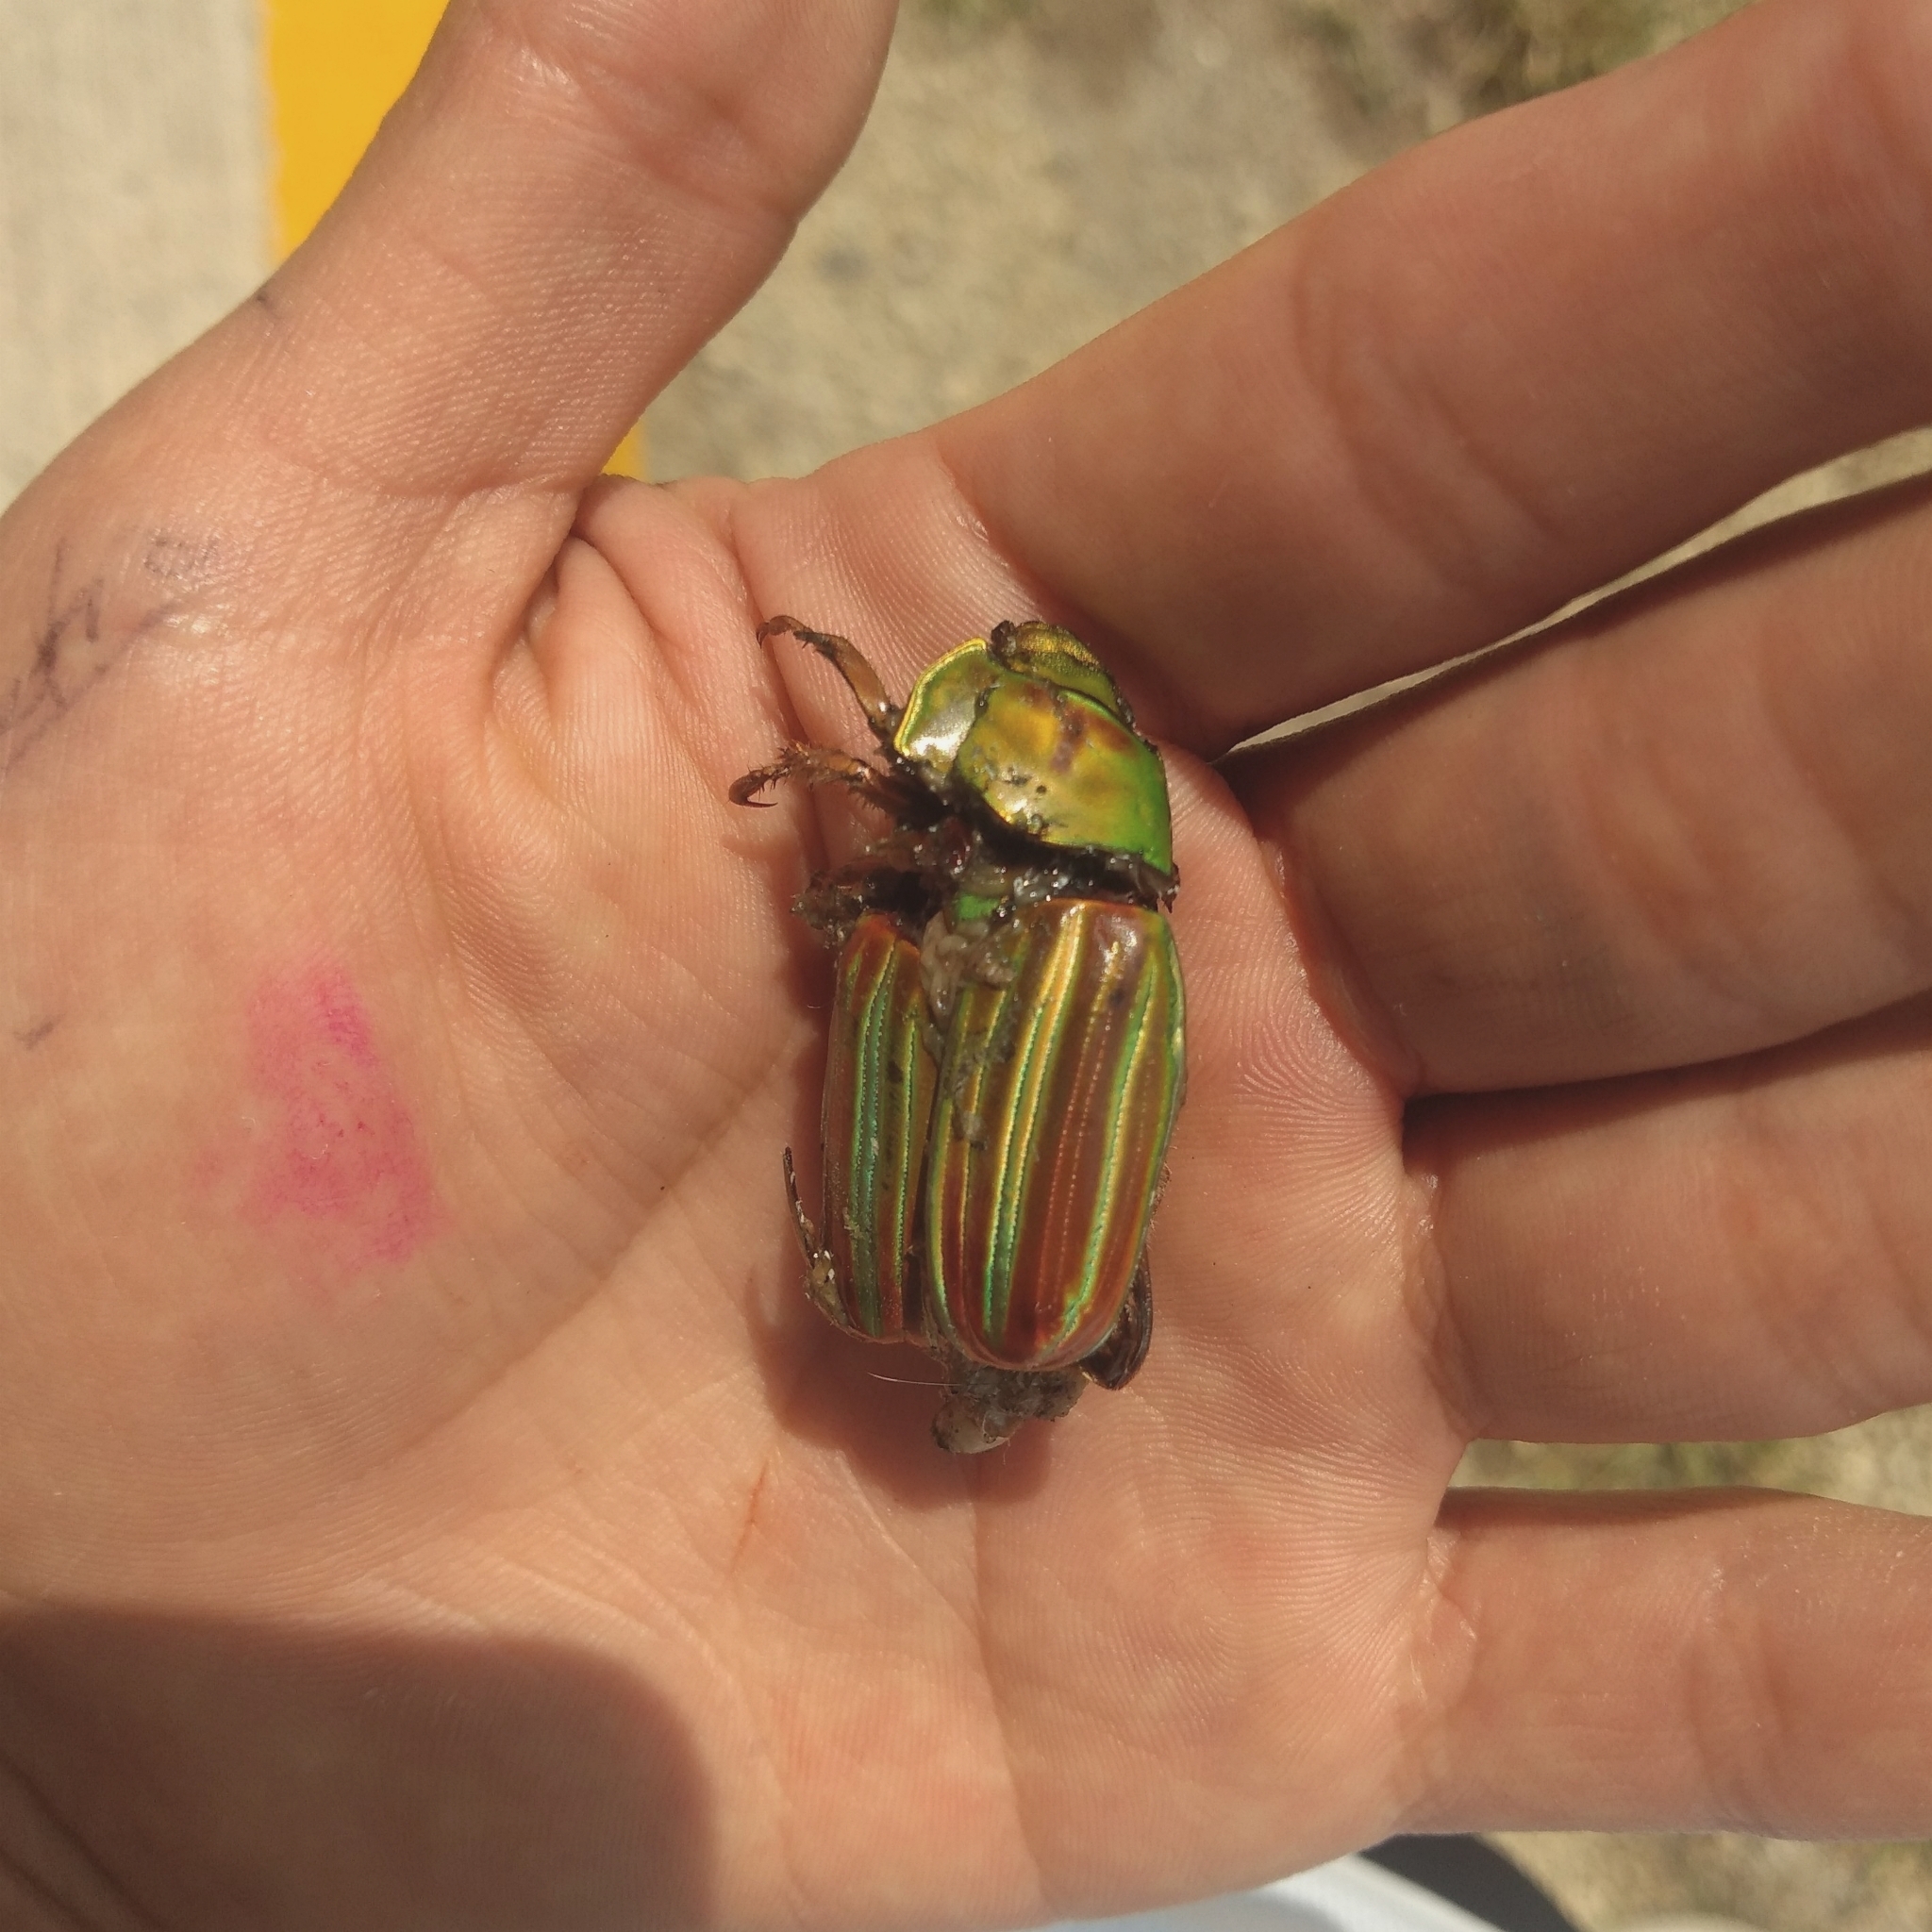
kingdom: Animalia
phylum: Arthropoda
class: Insecta
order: Coleoptera
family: Scarabaeidae
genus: Chrysina
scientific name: Chrysina adelaida
